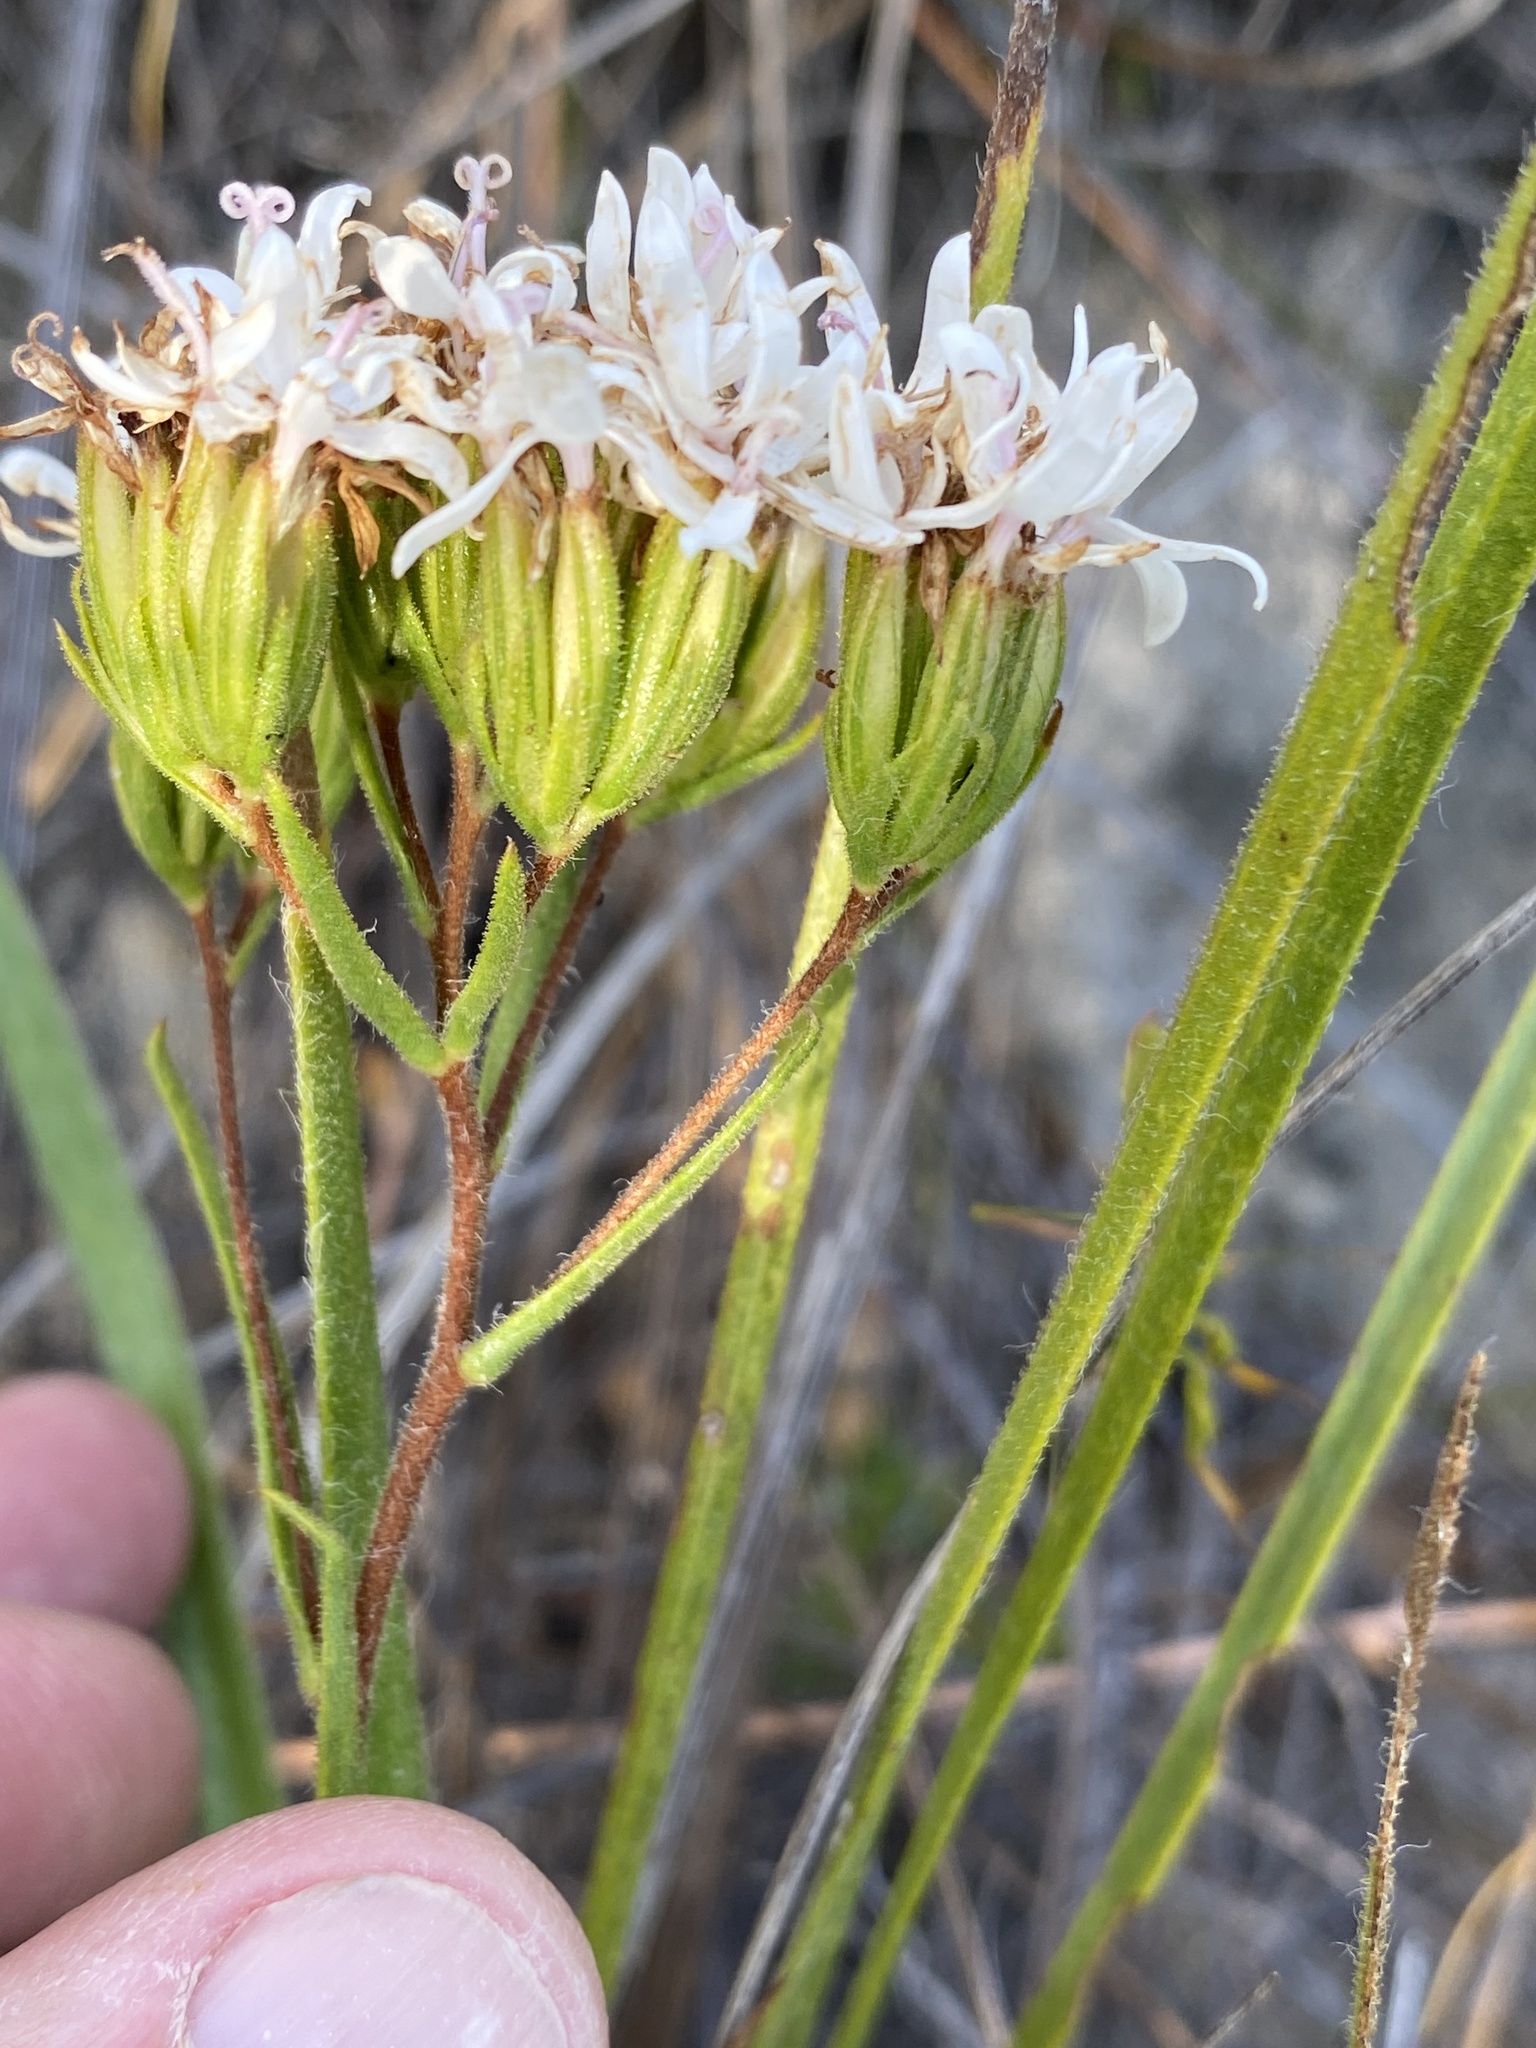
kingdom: Plantae
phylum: Tracheophyta
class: Magnoliopsida
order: Asterales
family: Asteraceae
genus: Corymbium
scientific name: Corymbium villosum
